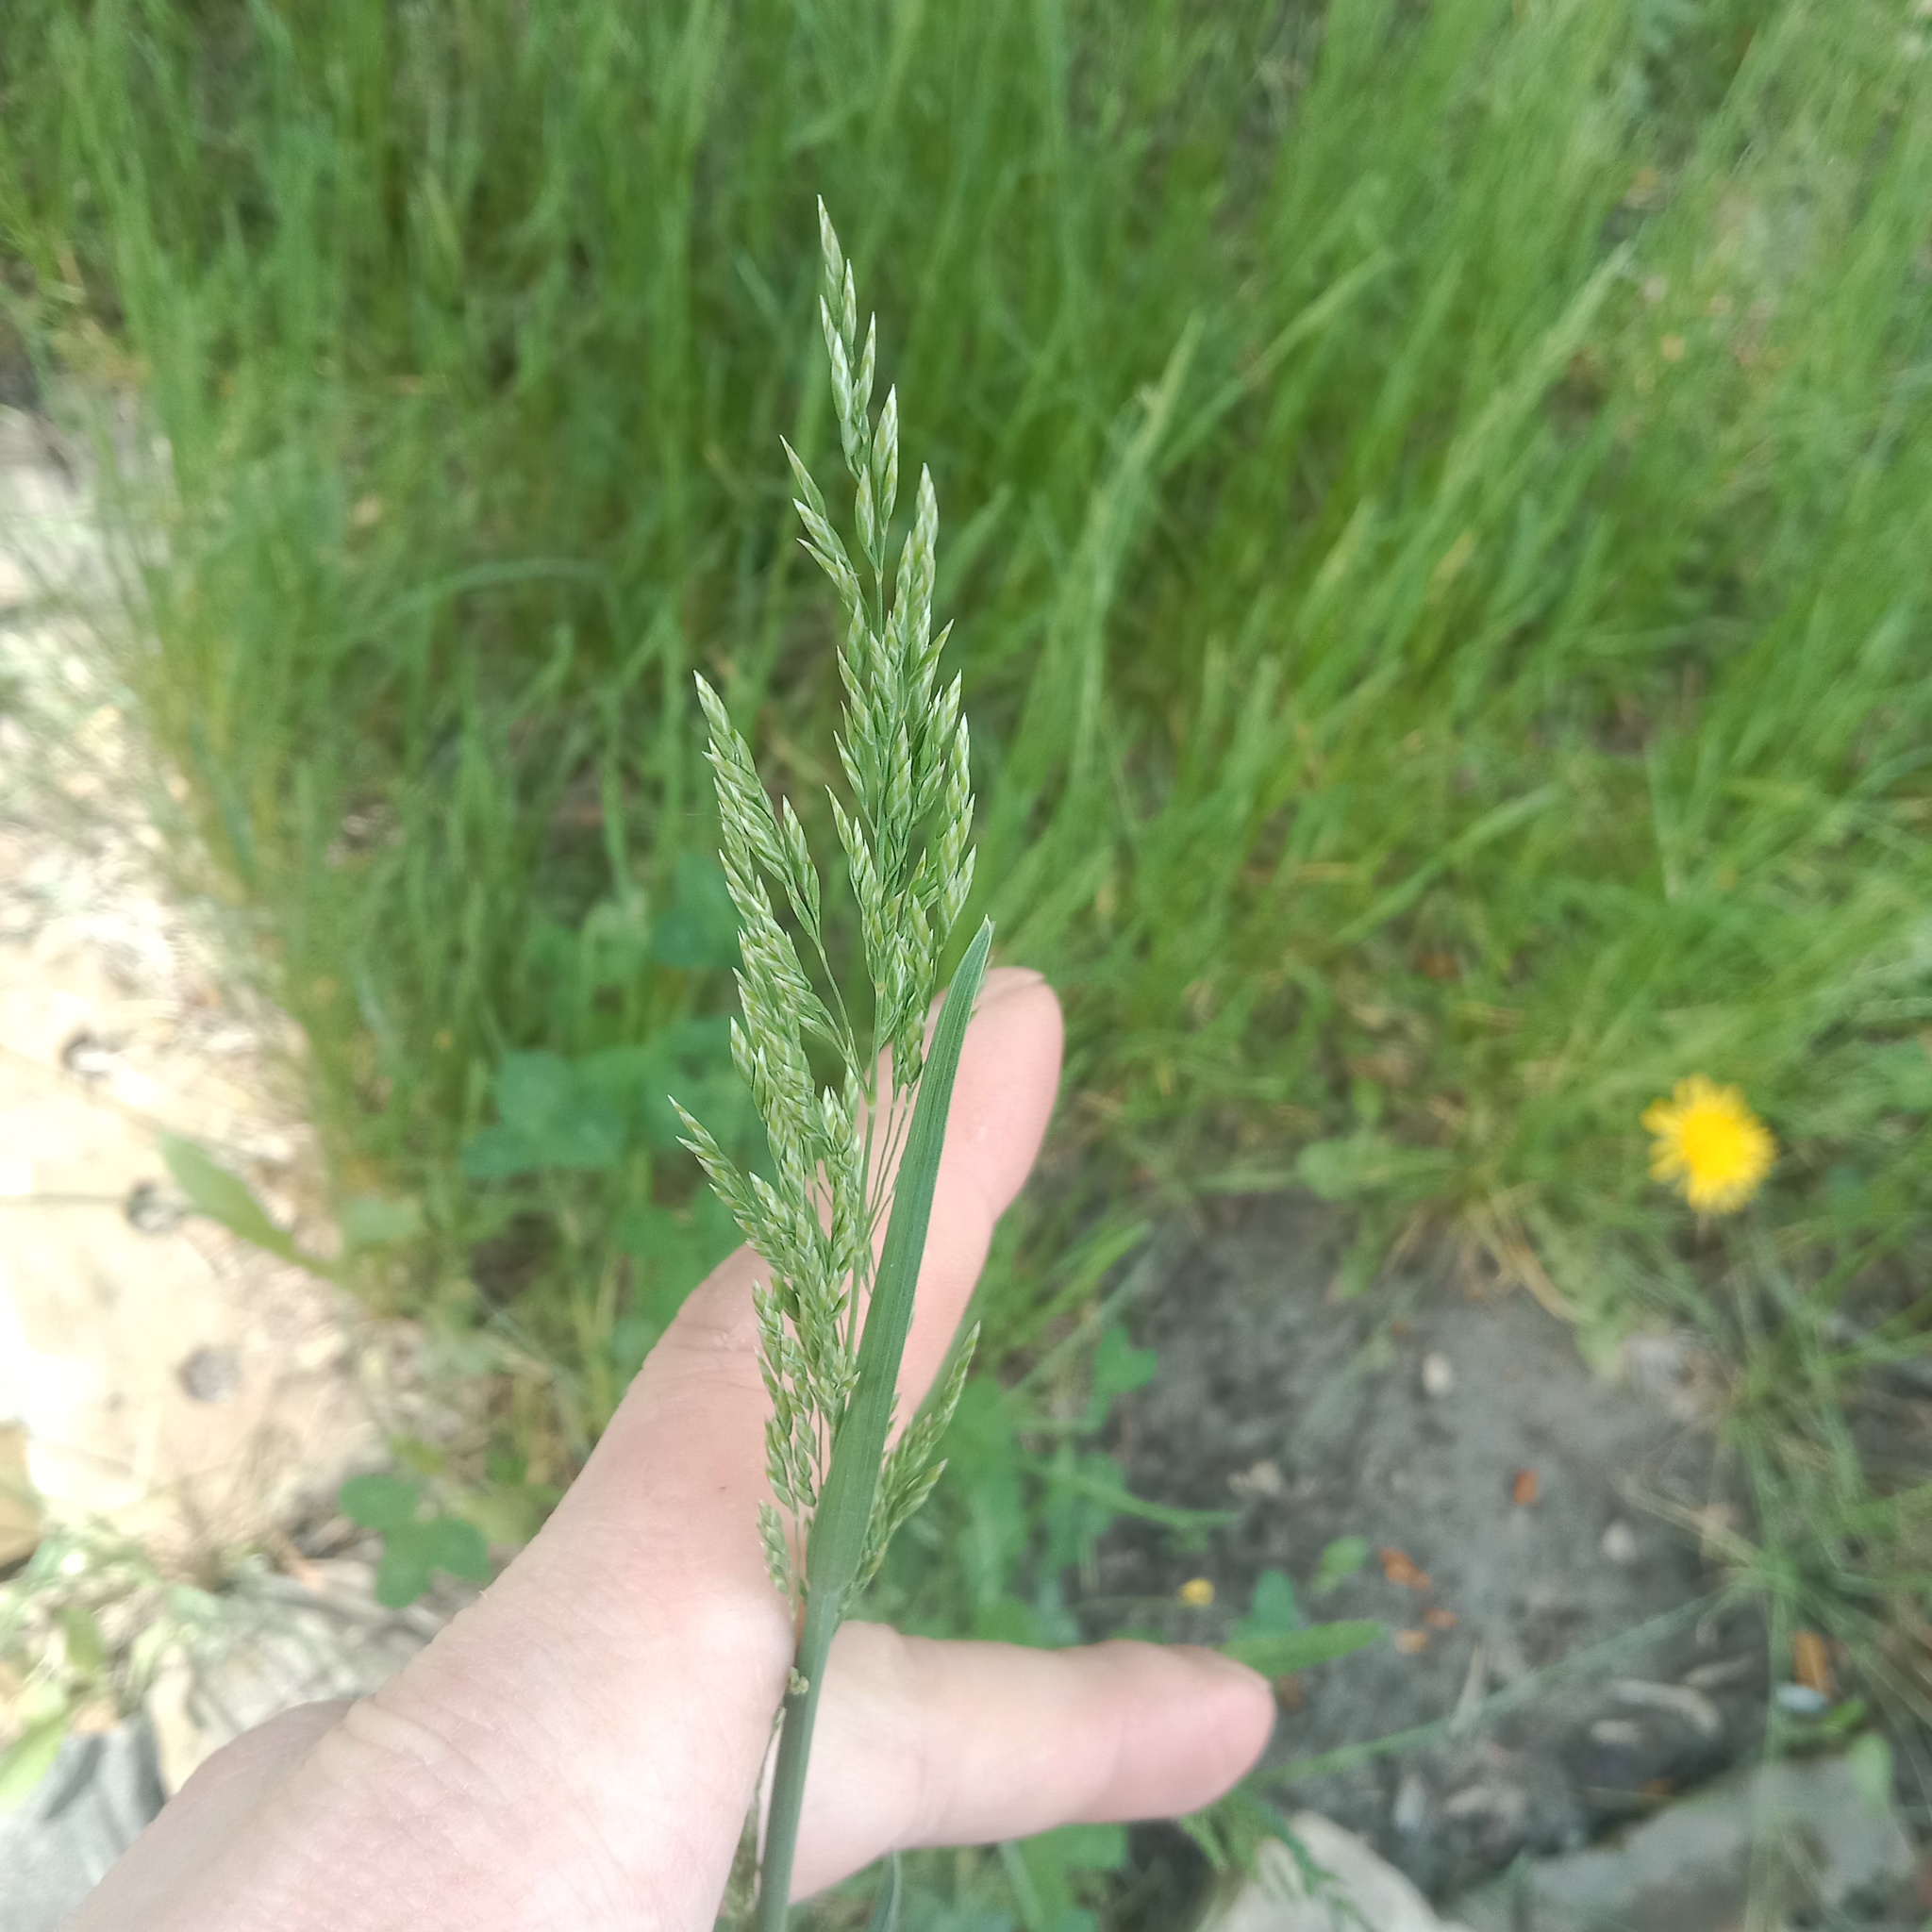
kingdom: Plantae
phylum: Tracheophyta
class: Liliopsida
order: Poales
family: Poaceae
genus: Poa
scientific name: Poa pratensis
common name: Kentucky bluegrass
